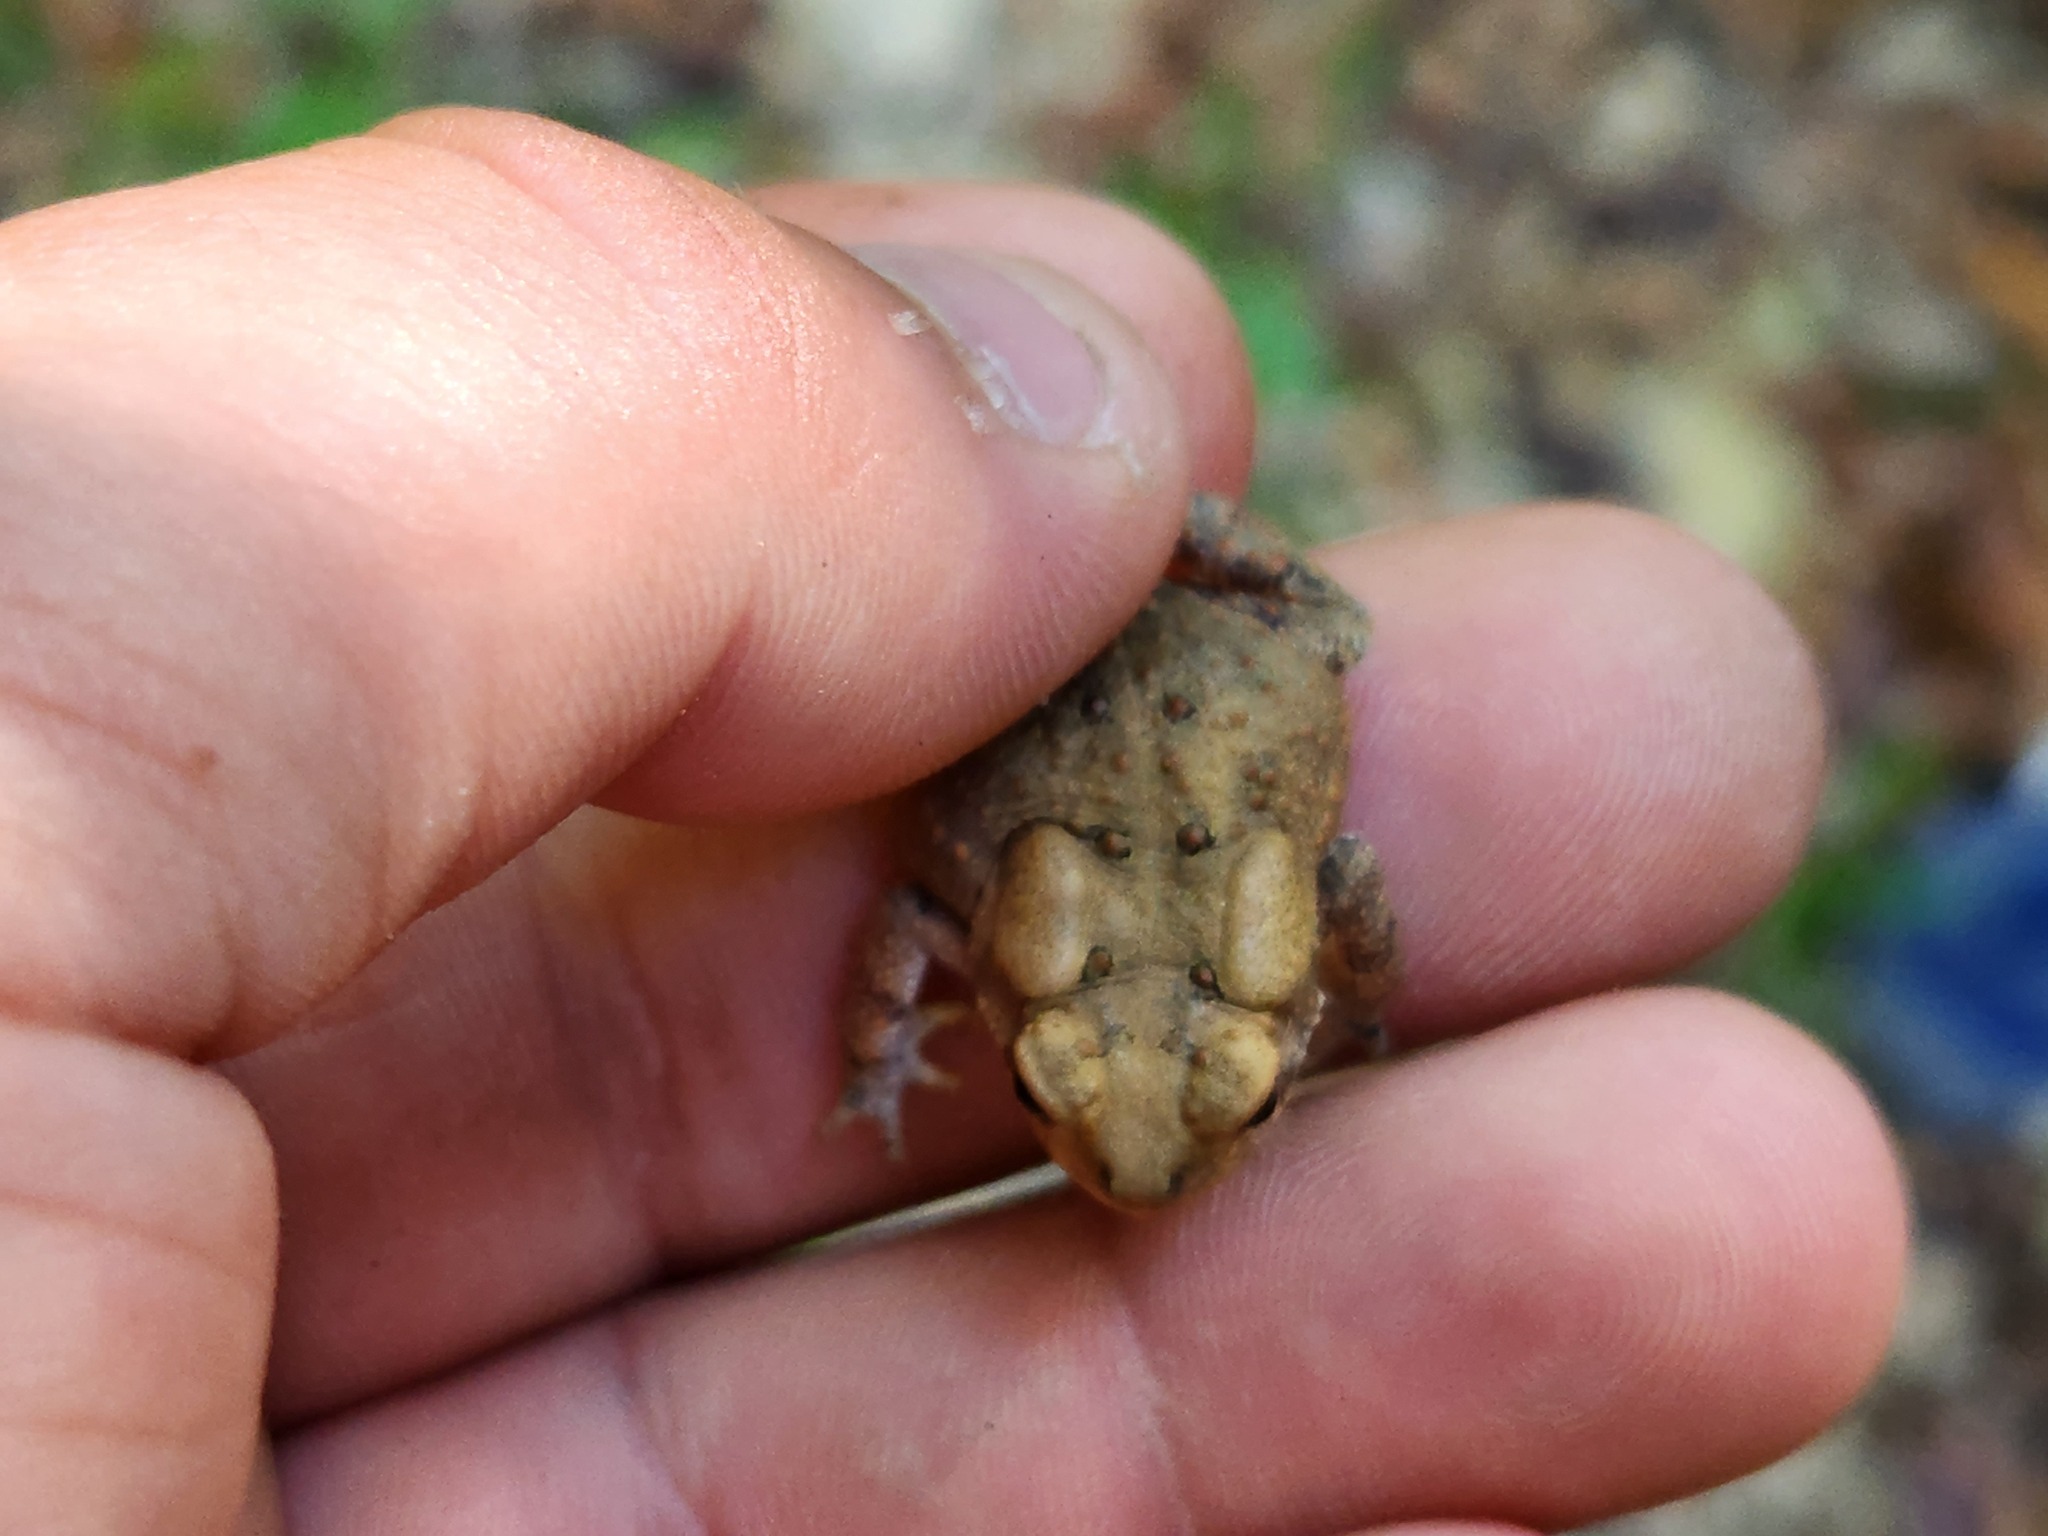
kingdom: Animalia
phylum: Chordata
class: Amphibia
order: Anura
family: Bufonidae
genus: Anaxyrus
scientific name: Anaxyrus fowleri
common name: Fowler's toad
